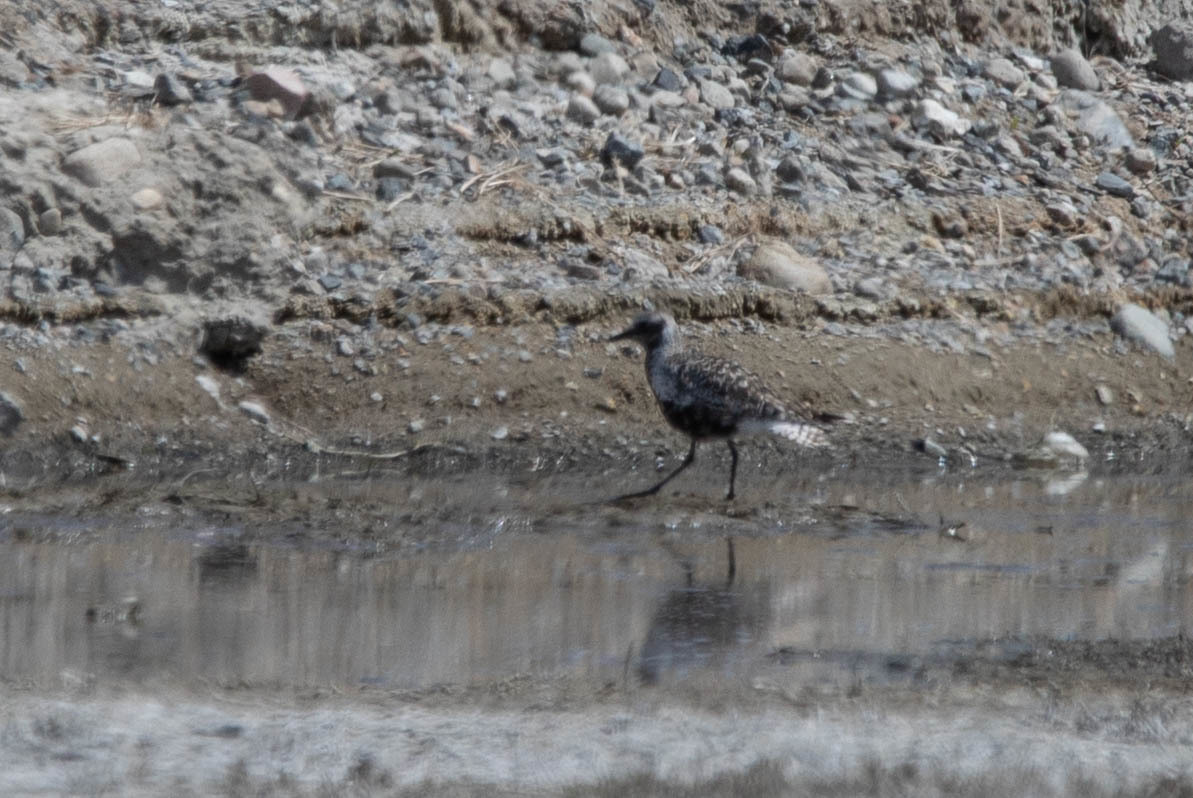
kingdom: Animalia
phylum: Chordata
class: Aves
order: Charadriiformes
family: Charadriidae
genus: Pluvialis
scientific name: Pluvialis squatarola
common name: Grey plover
